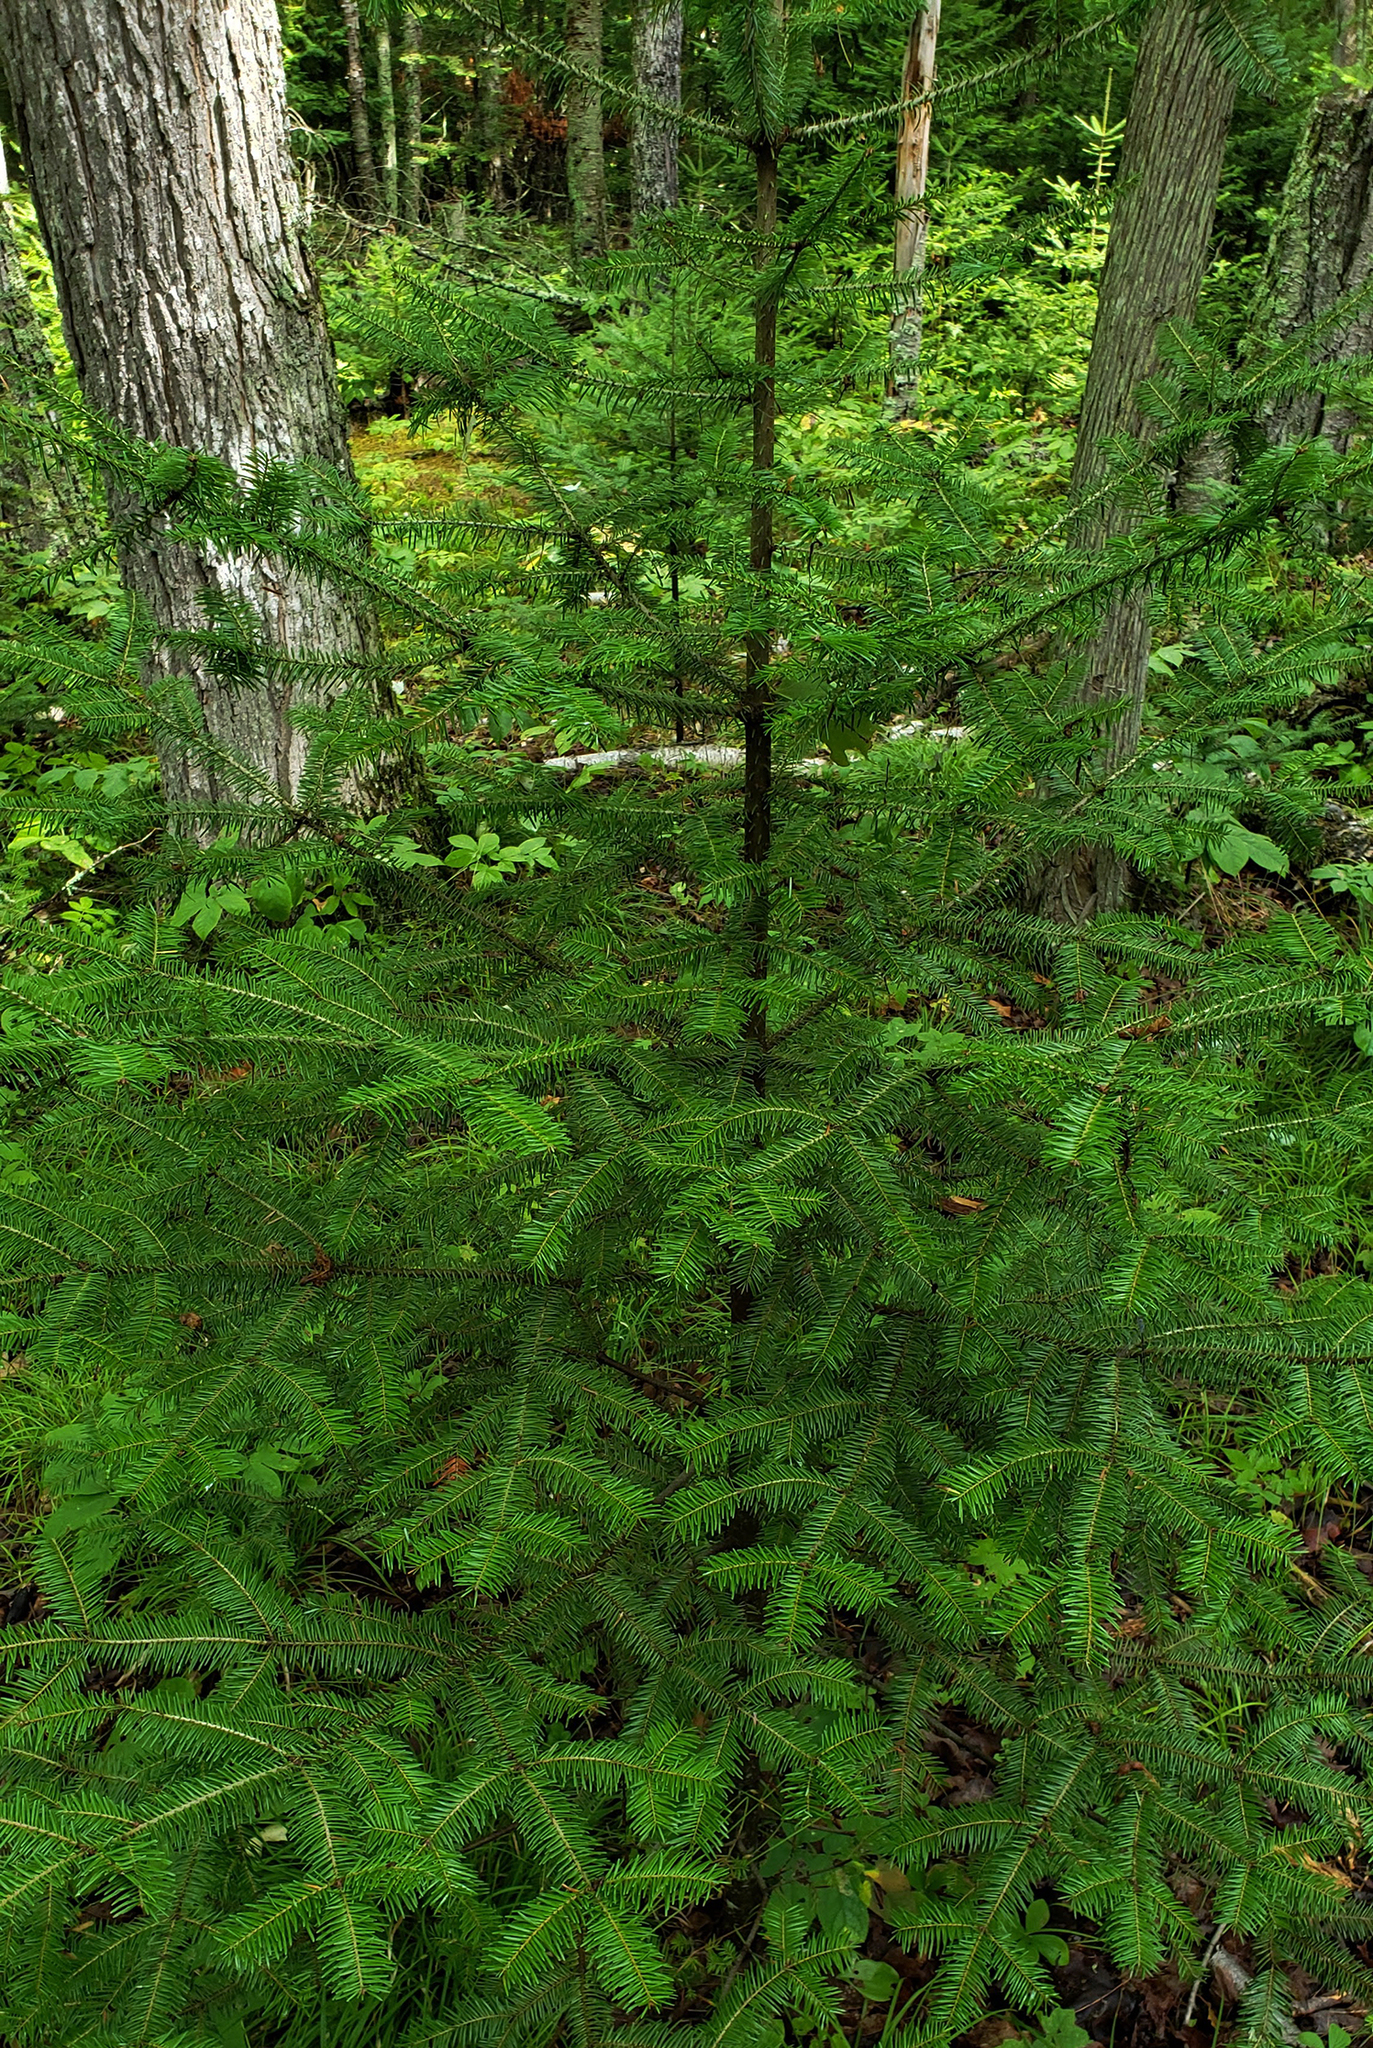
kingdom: Plantae
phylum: Tracheophyta
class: Pinopsida
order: Pinales
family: Pinaceae
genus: Abies
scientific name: Abies balsamea
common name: Balsam fir
